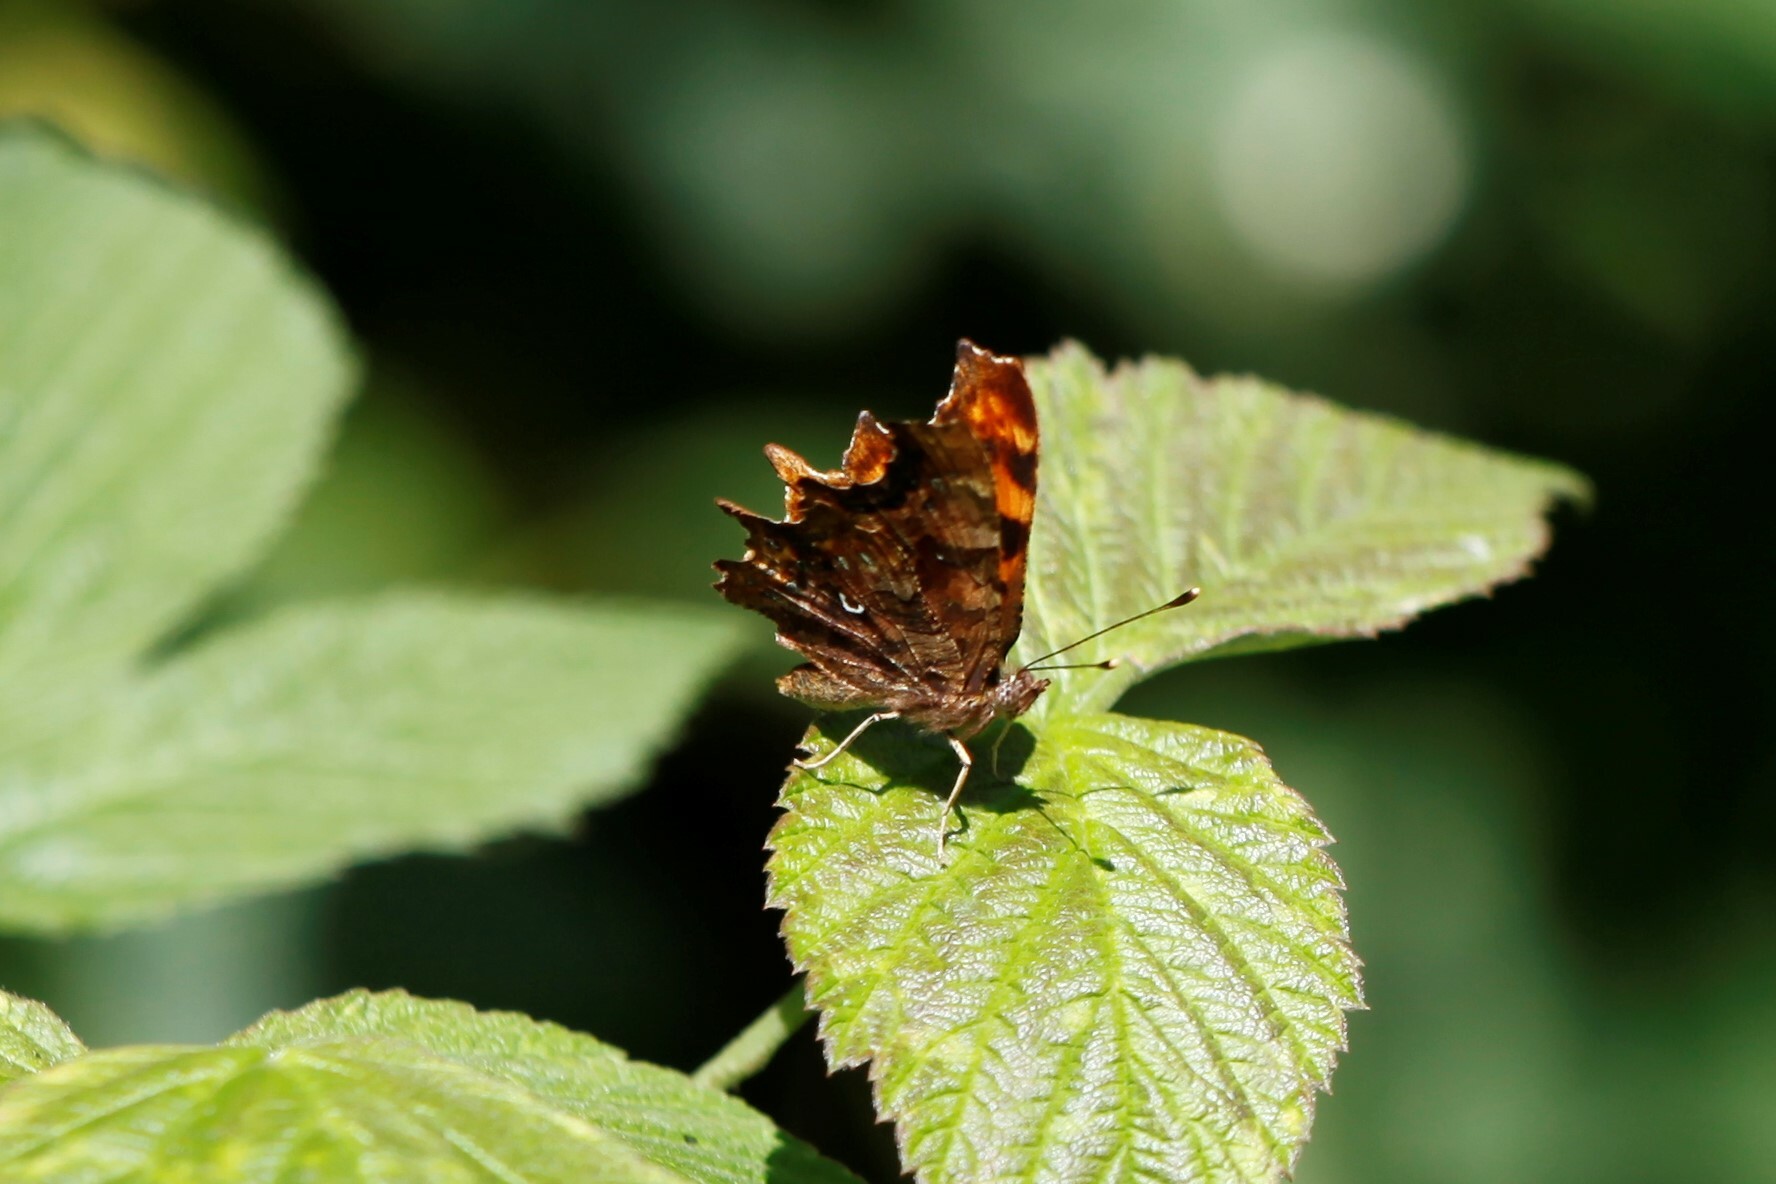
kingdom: Animalia
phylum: Arthropoda
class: Insecta
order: Lepidoptera
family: Nymphalidae
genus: Polygonia
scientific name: Polygonia c-album
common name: Comma
